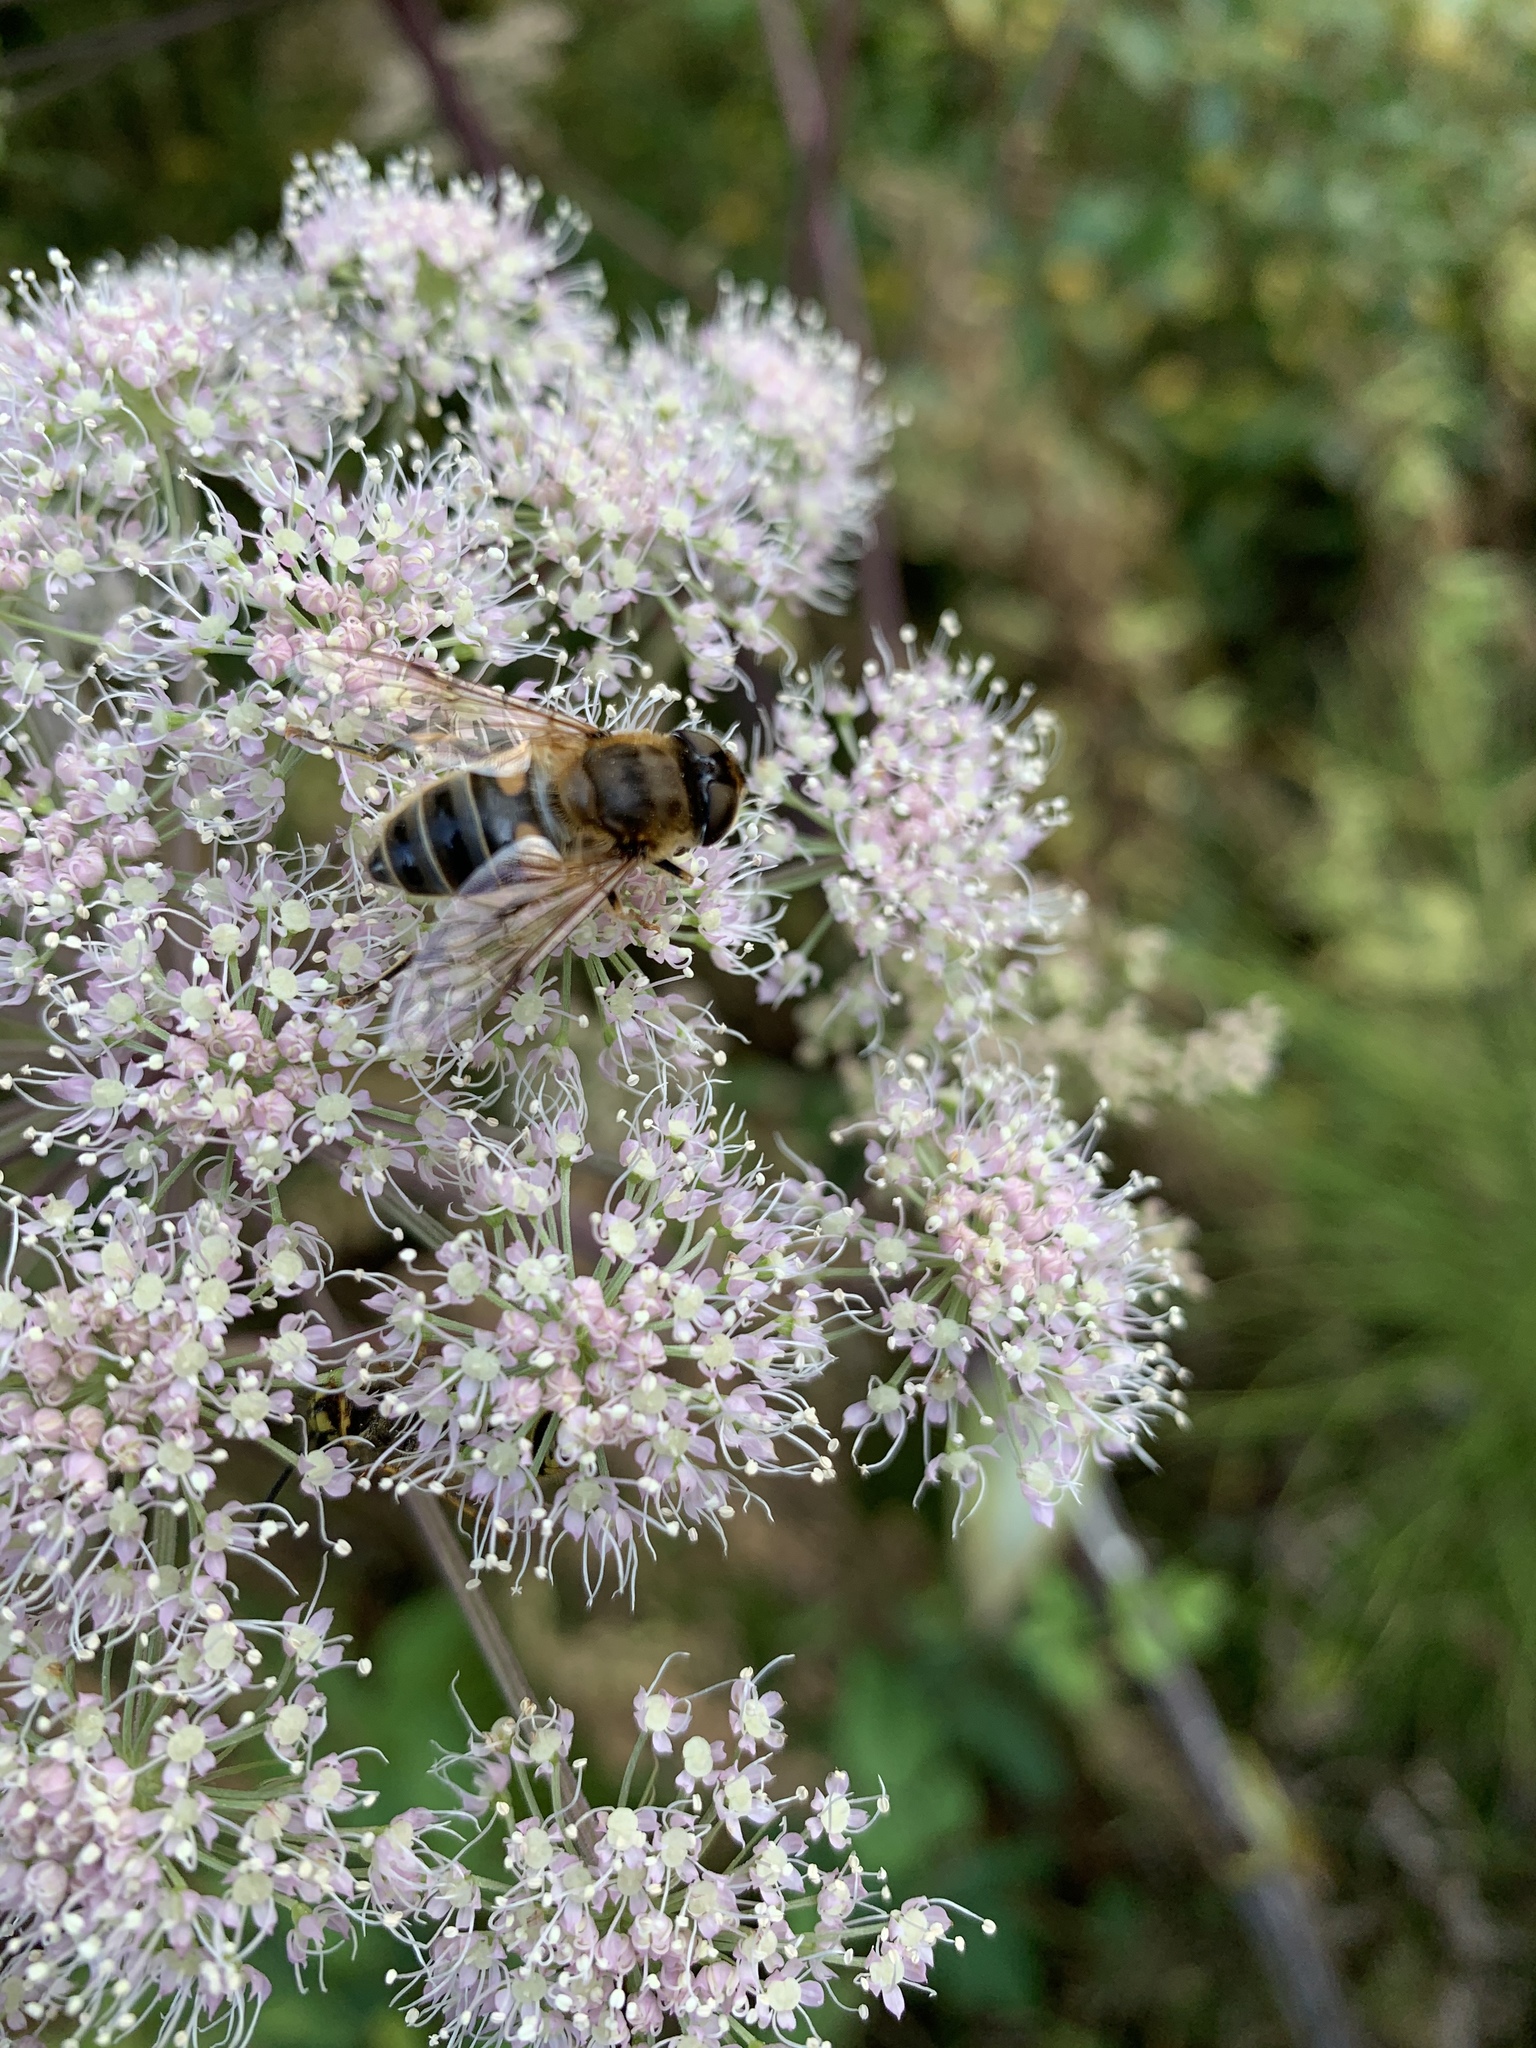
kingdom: Animalia
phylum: Arthropoda
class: Insecta
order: Diptera
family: Syrphidae
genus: Eristalis
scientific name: Eristalis pertinax
